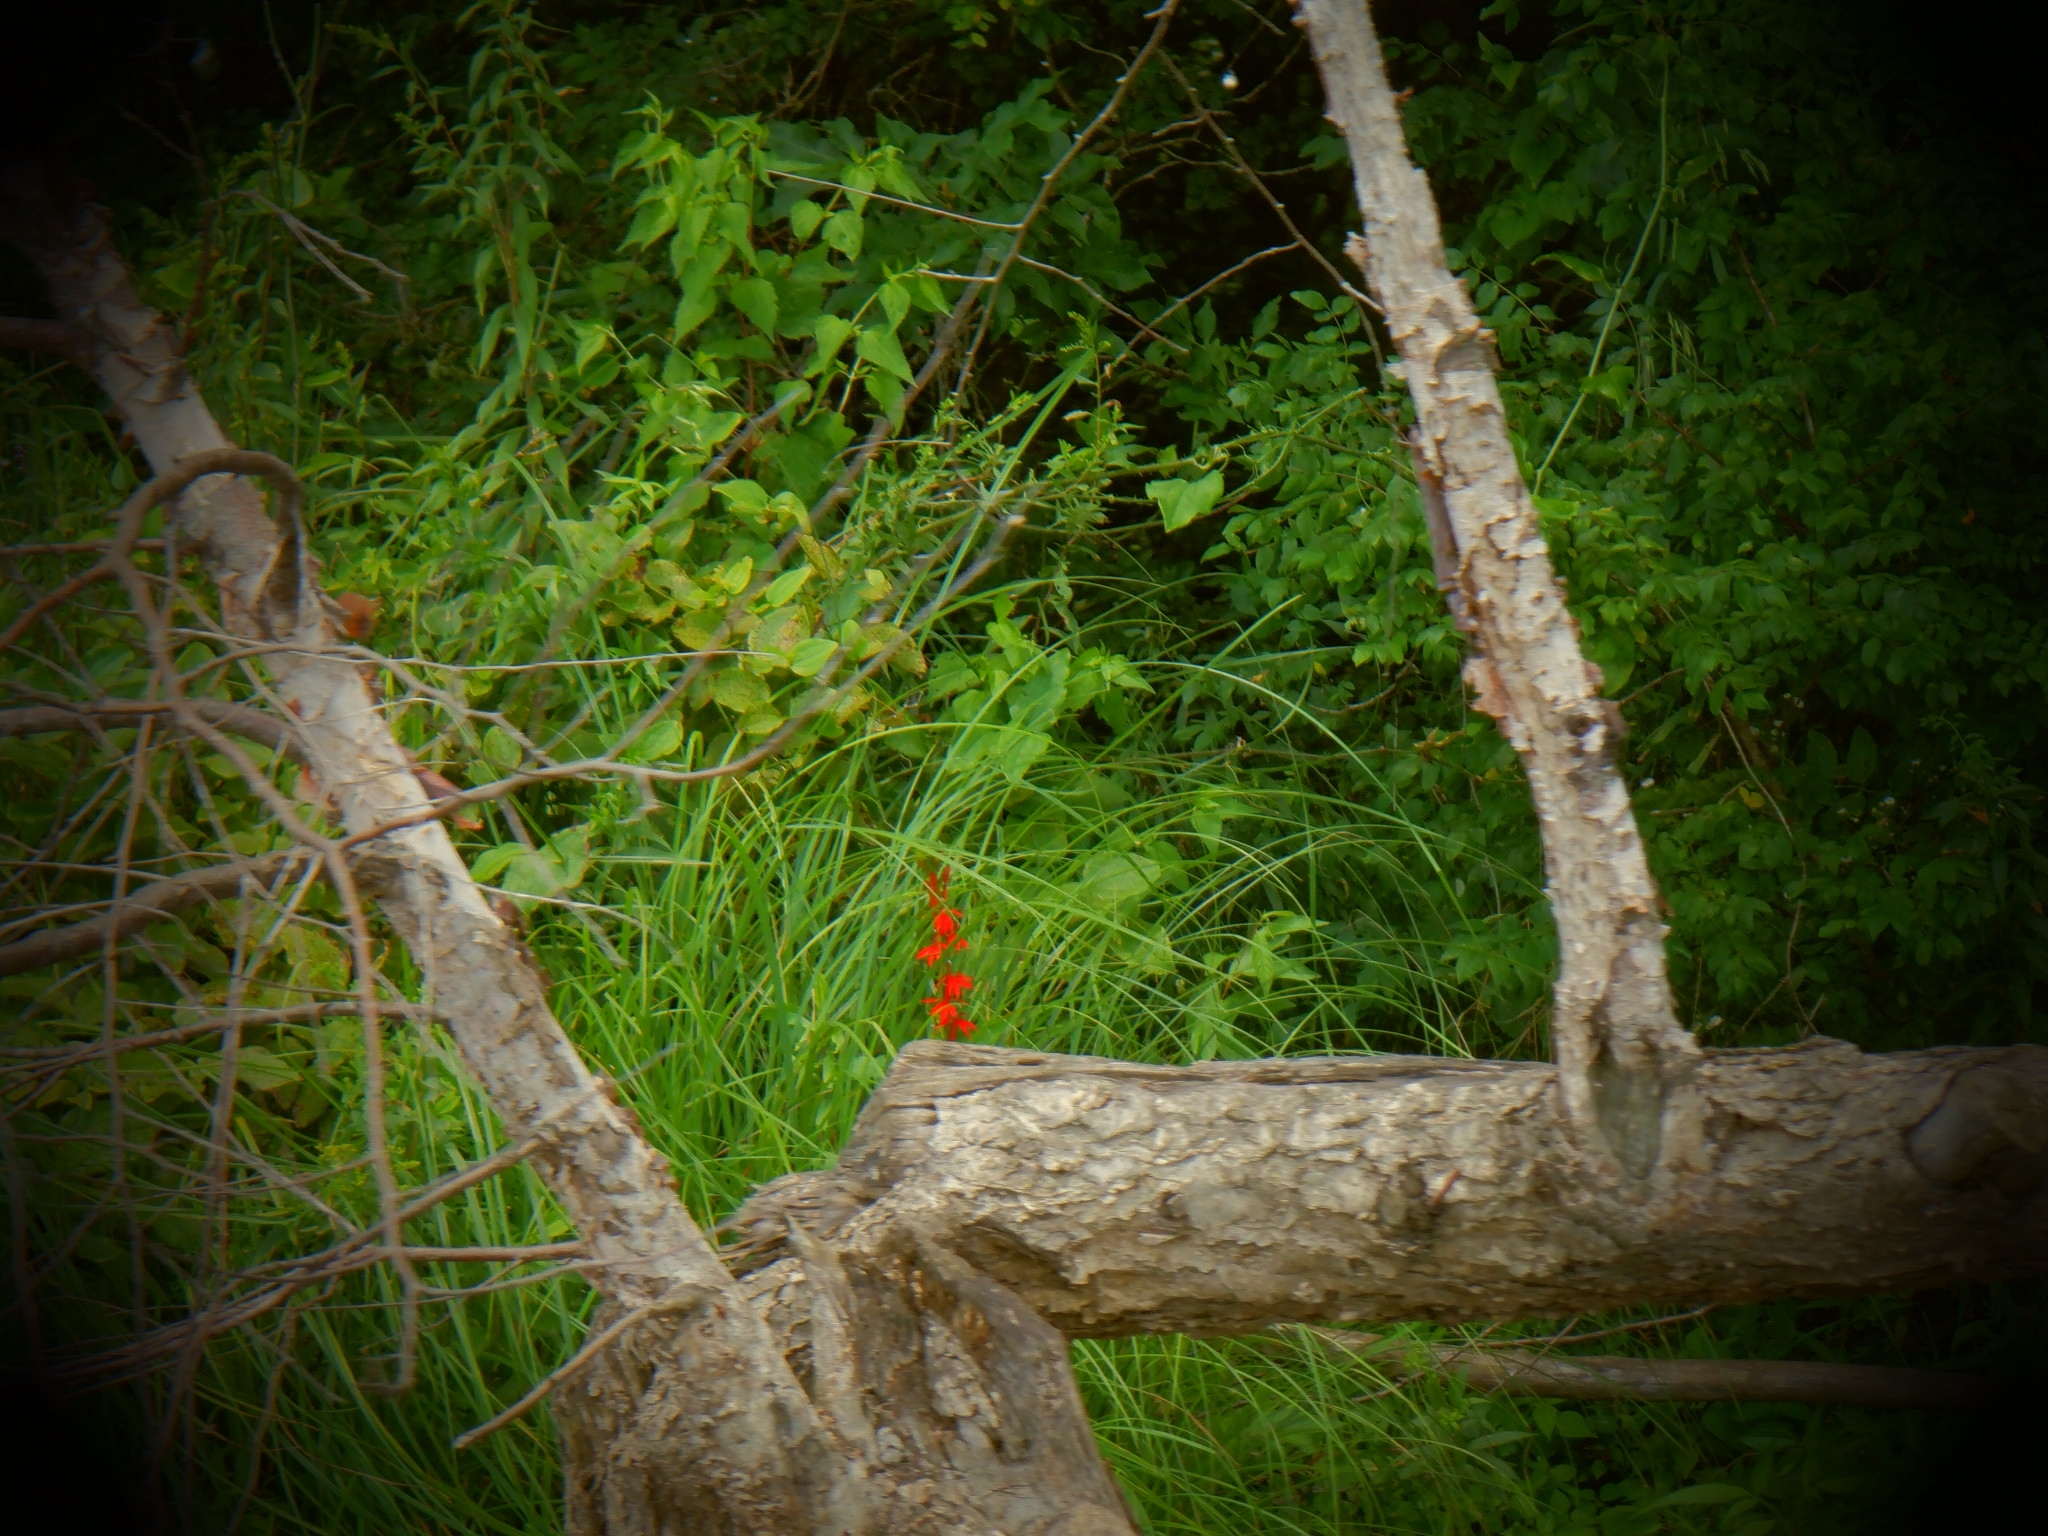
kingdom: Plantae
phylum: Tracheophyta
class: Magnoliopsida
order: Asterales
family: Campanulaceae
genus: Lobelia
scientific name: Lobelia cardinalis
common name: Cardinal flower
